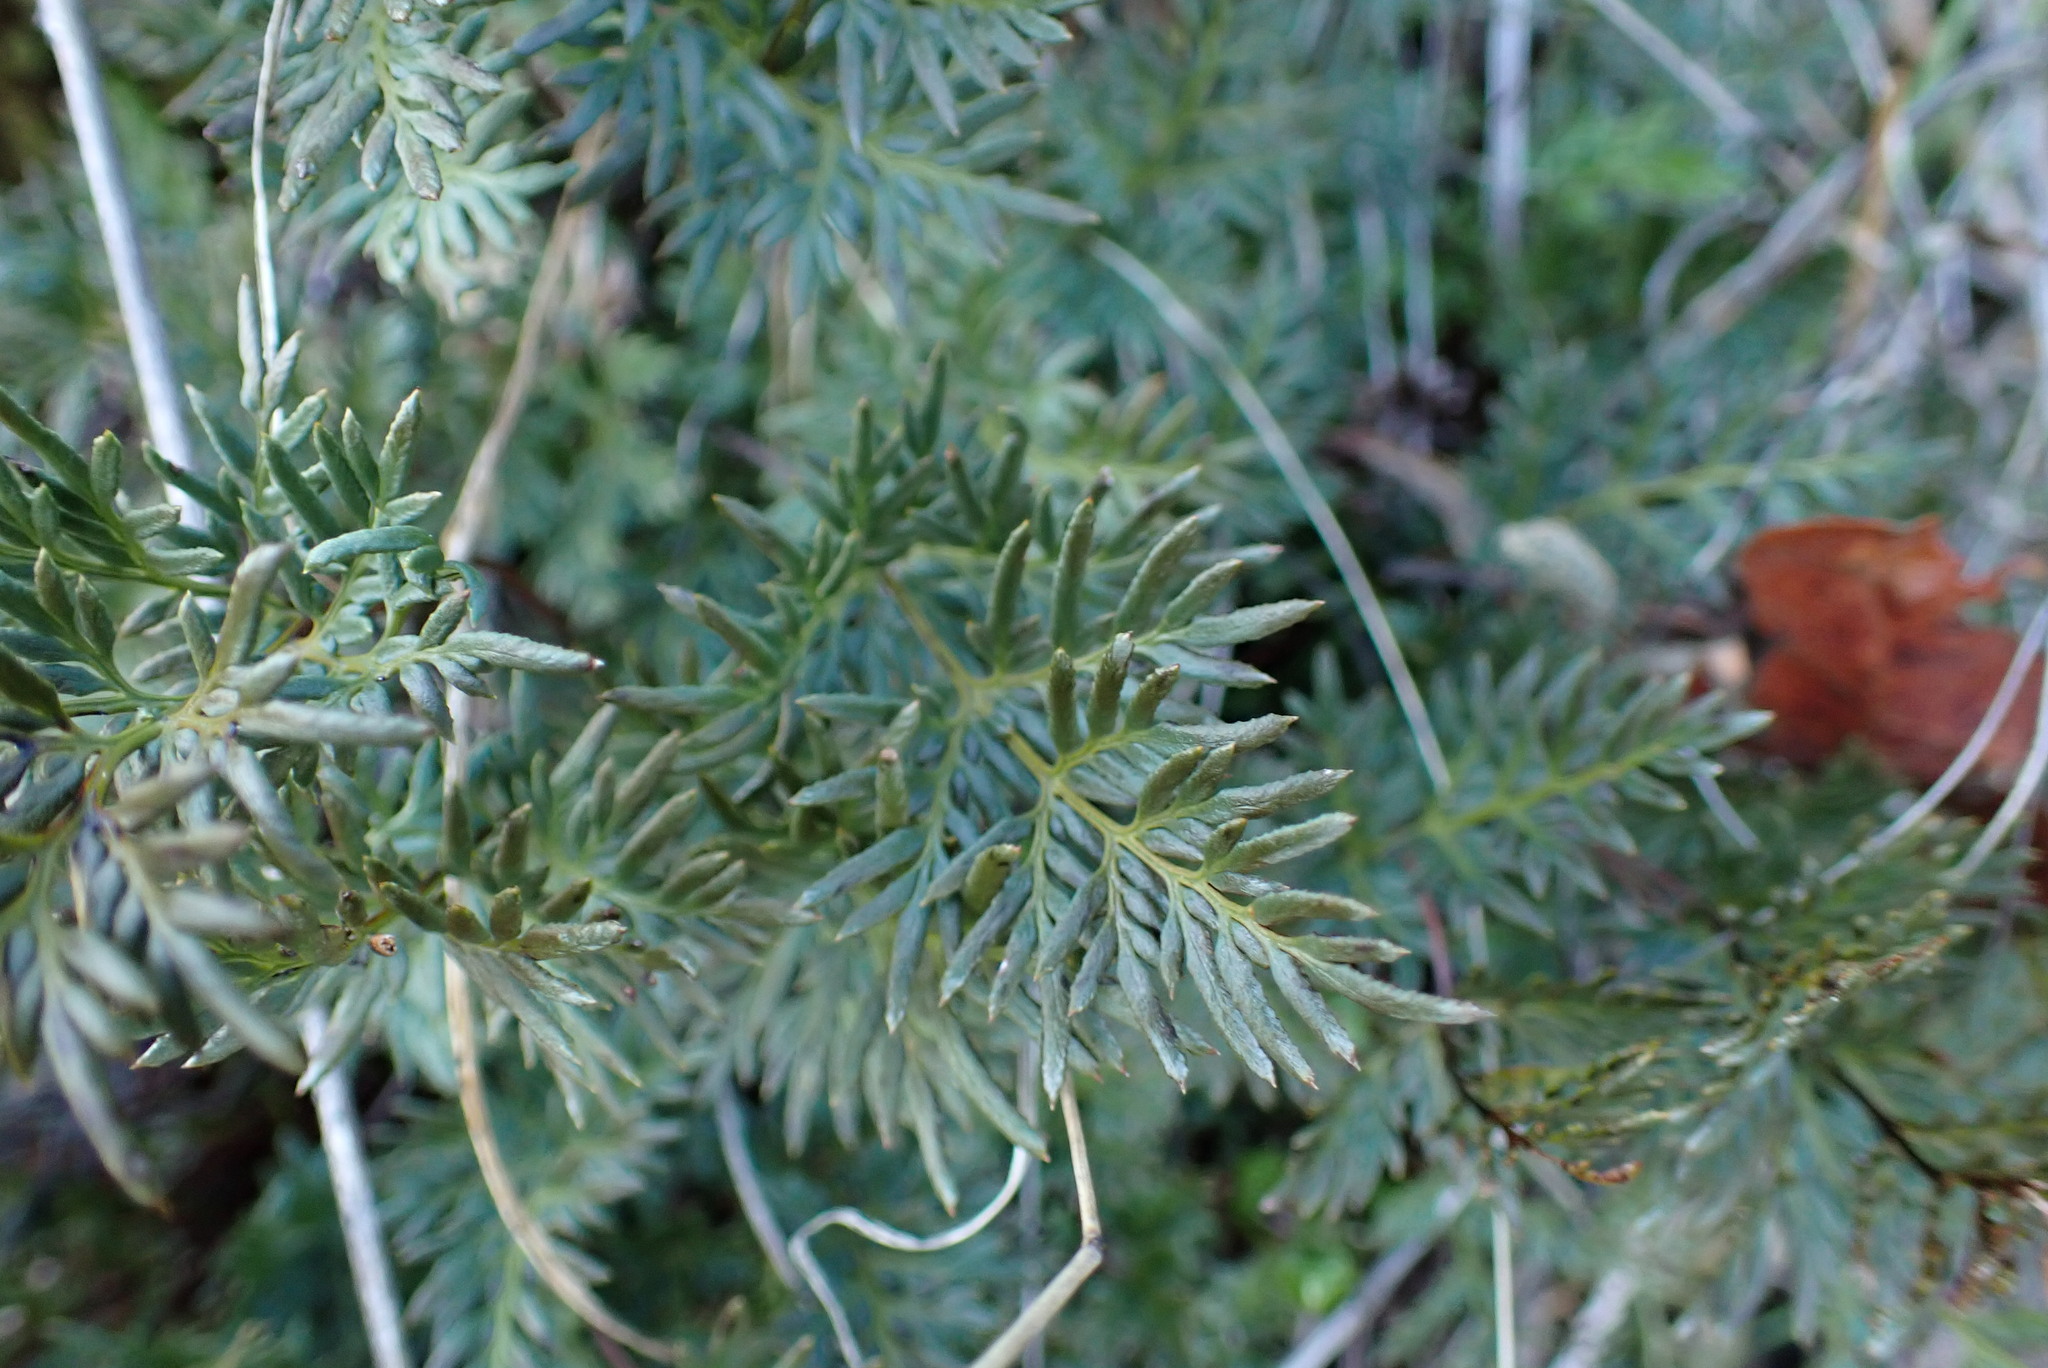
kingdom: Plantae
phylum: Tracheophyta
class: Polypodiopsida
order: Polypodiales
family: Pteridaceae
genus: Aspidotis
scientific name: Aspidotis densa
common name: Indian's dream
